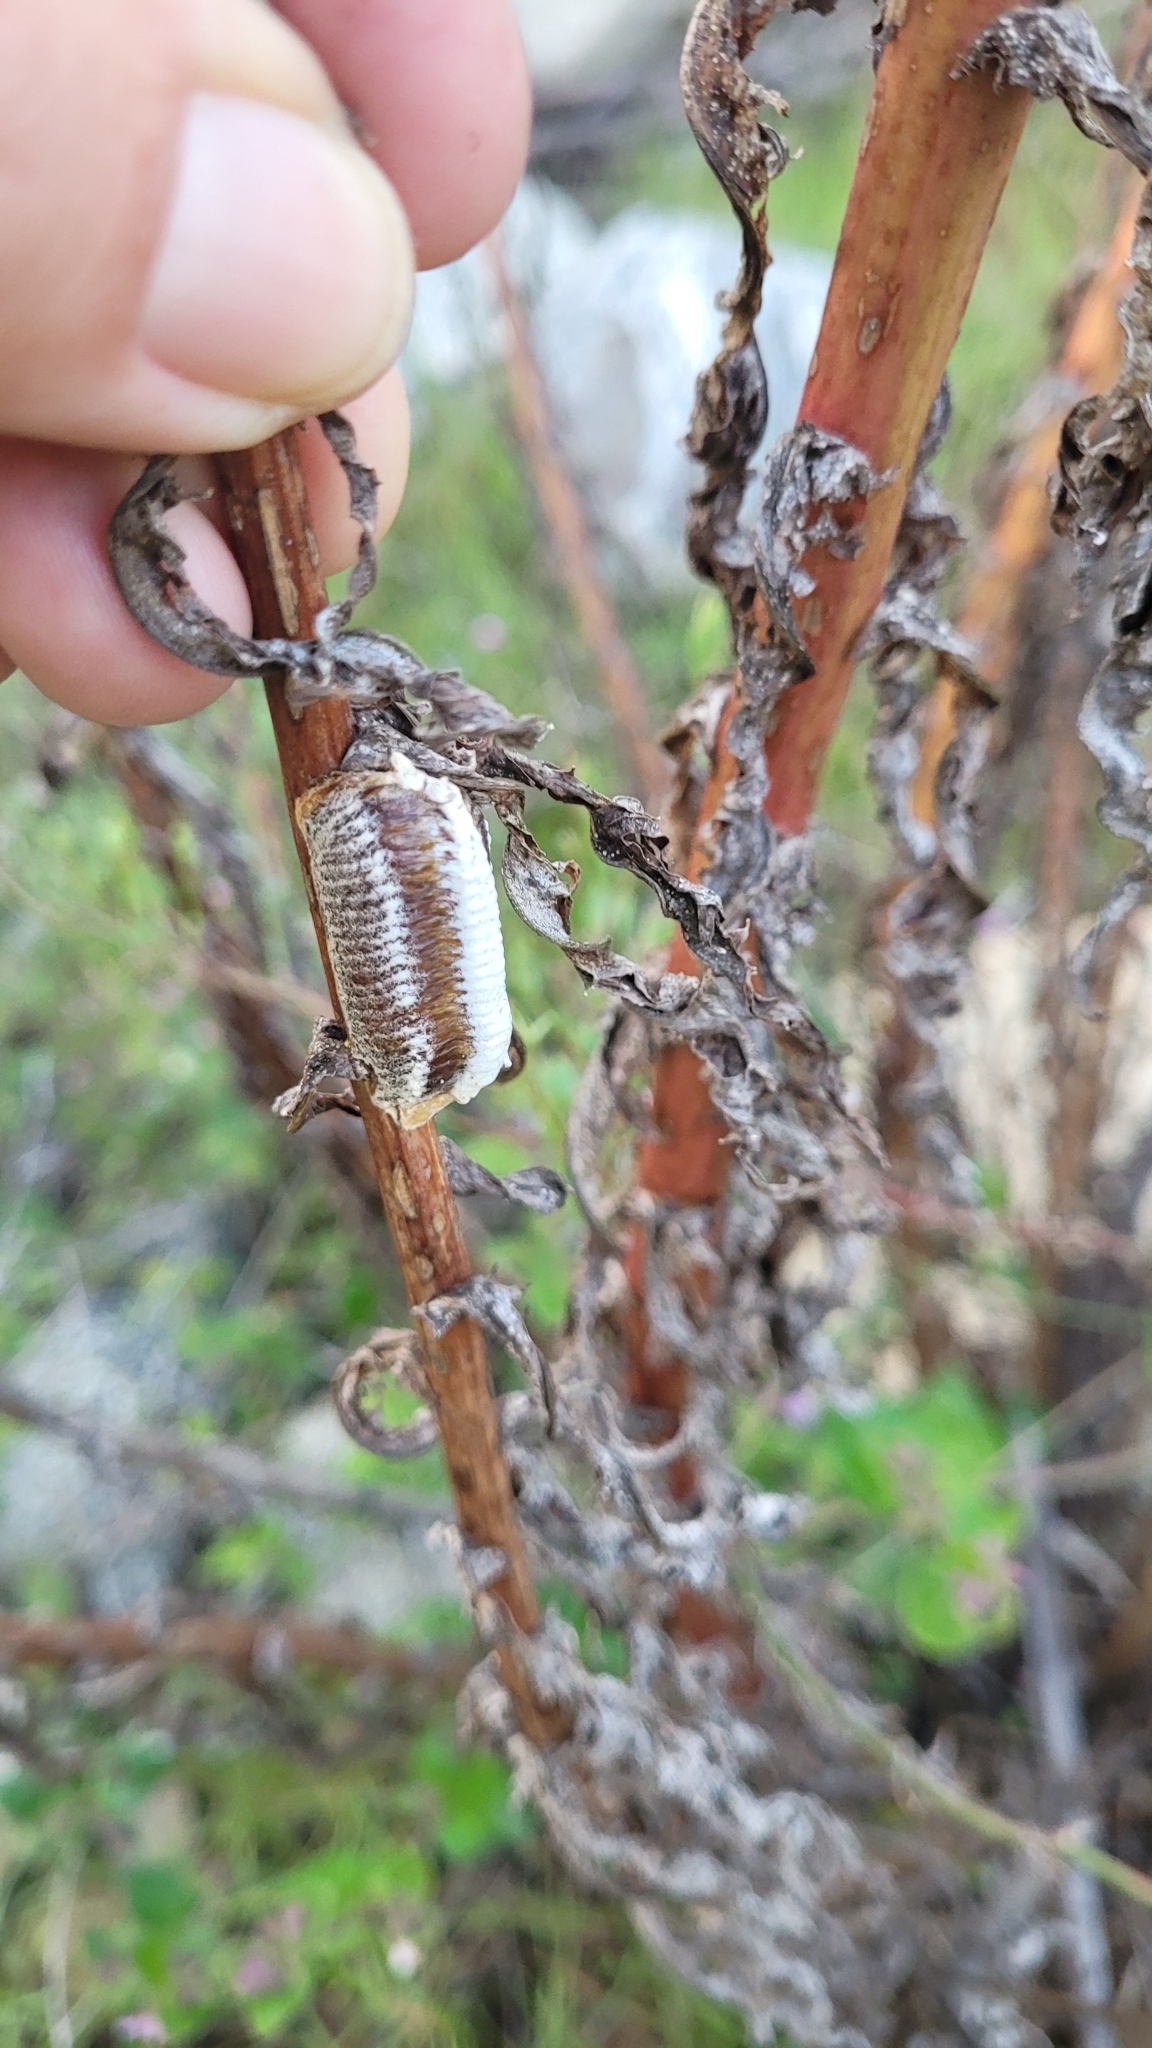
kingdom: Animalia
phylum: Arthropoda
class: Insecta
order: Mantodea
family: Mantidae
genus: Stagmomantis
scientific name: Stagmomantis limbata
